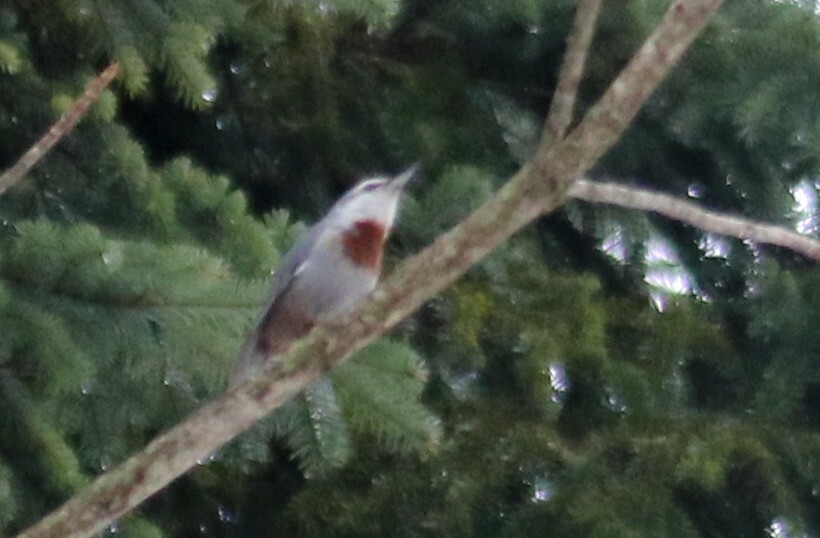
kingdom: Animalia
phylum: Chordata
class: Aves
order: Passeriformes
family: Sittidae
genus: Sitta
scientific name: Sitta krueperi
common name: Krüper's nuthatch
